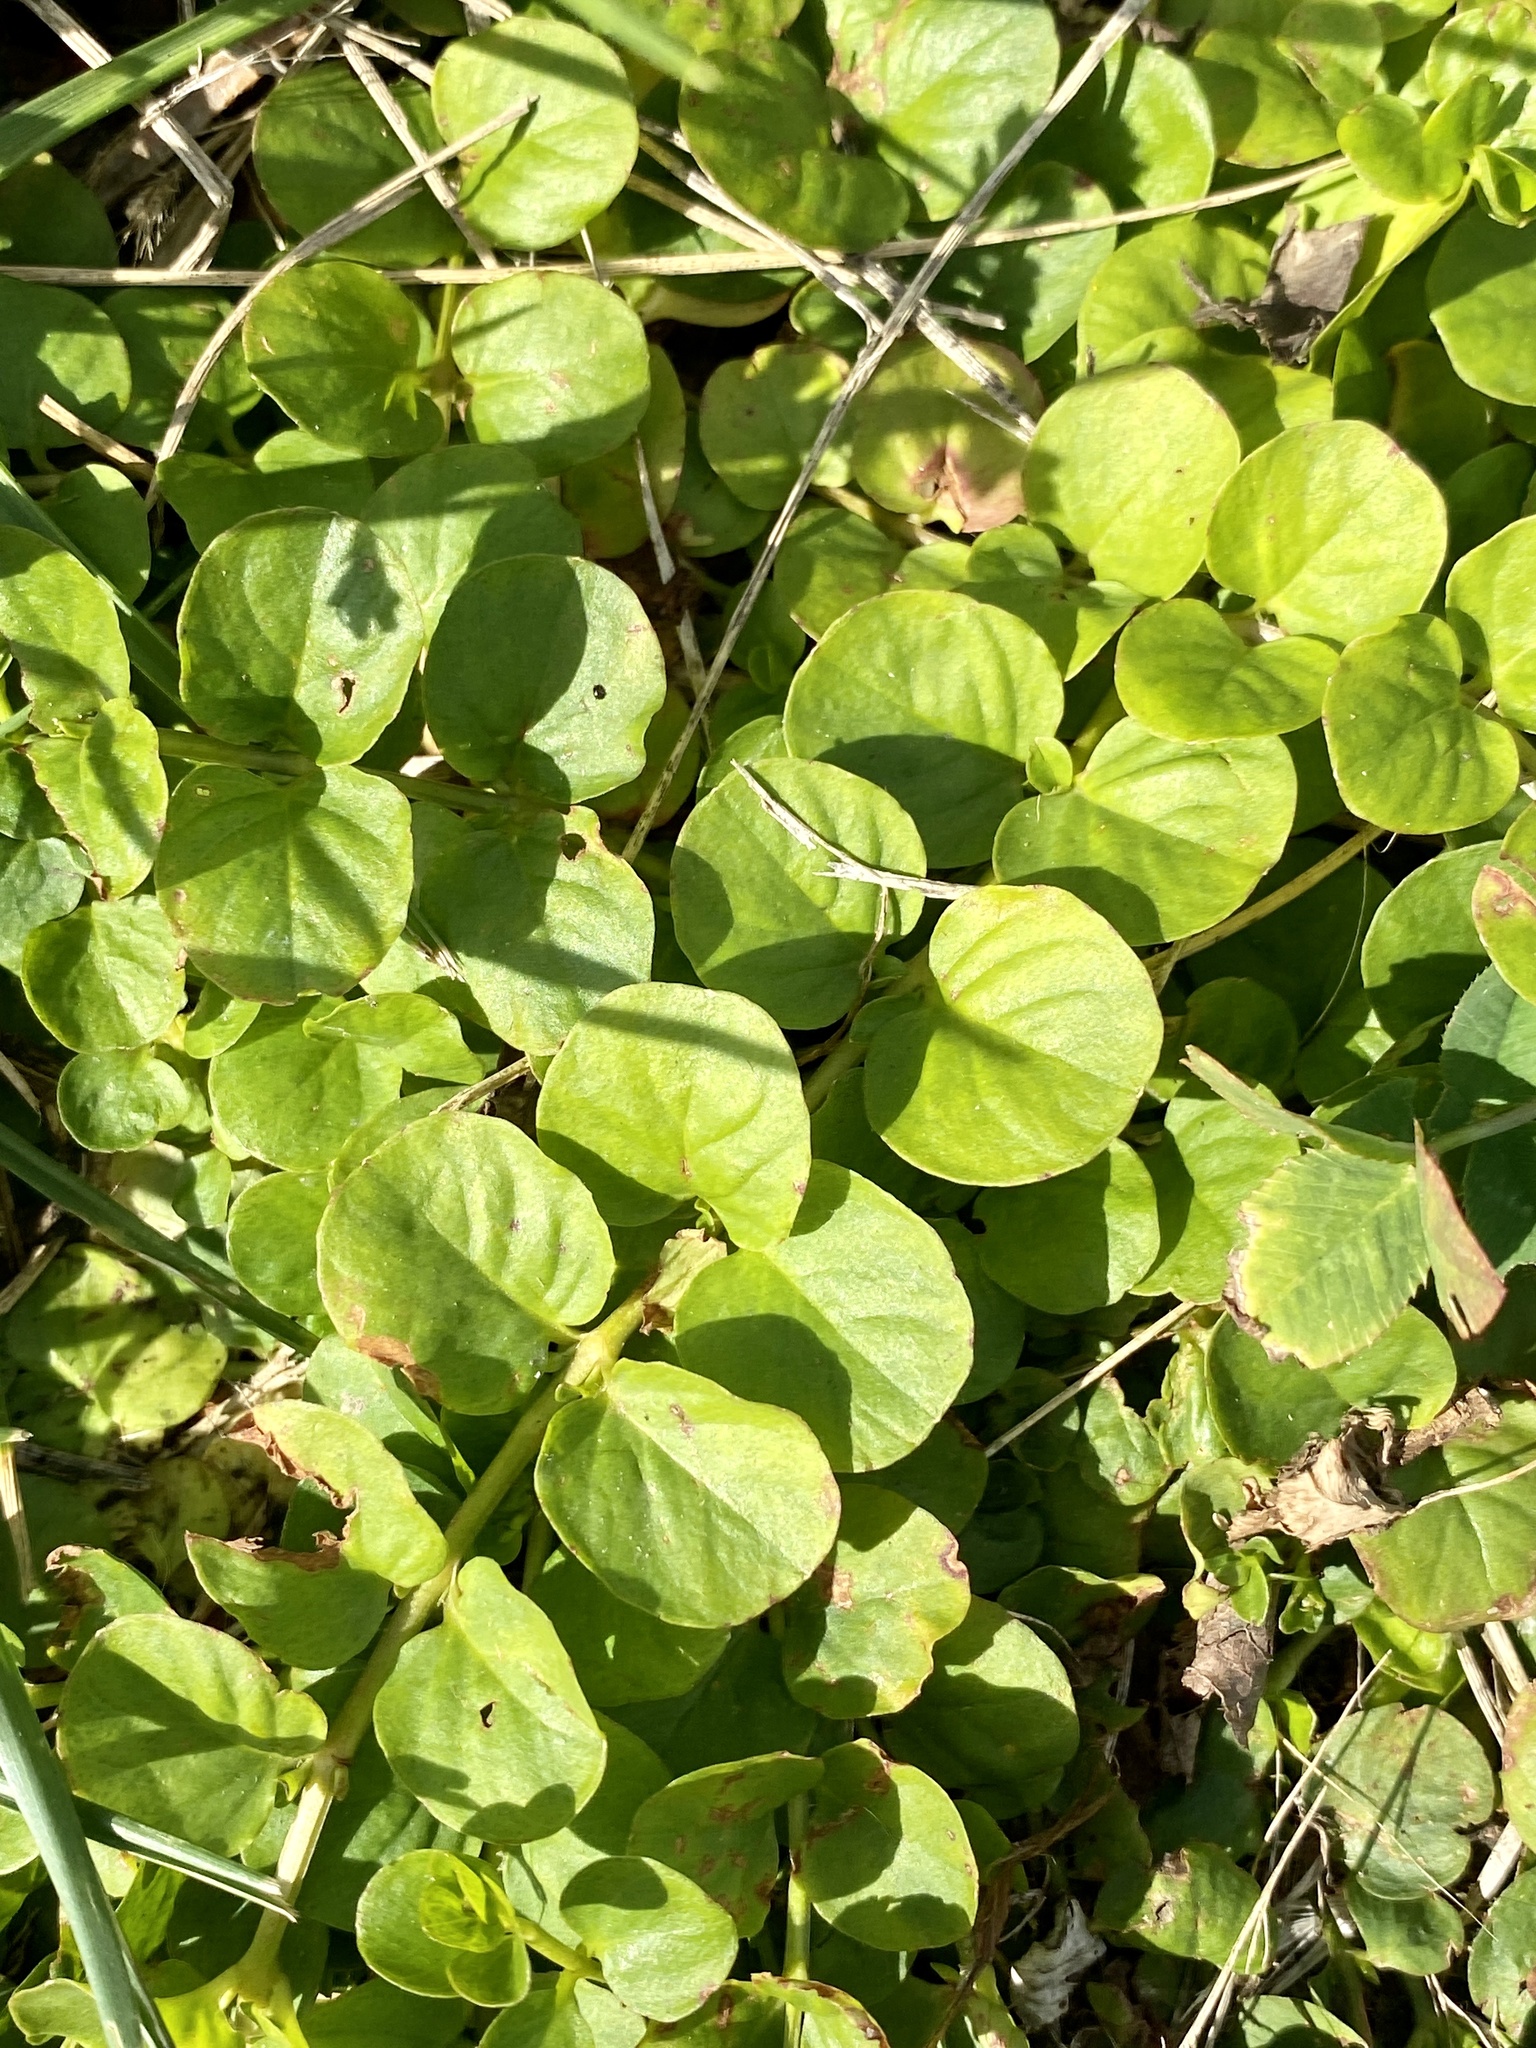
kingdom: Plantae
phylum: Tracheophyta
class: Magnoliopsida
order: Ericales
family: Primulaceae
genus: Lysimachia
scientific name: Lysimachia nummularia
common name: Moneywort
